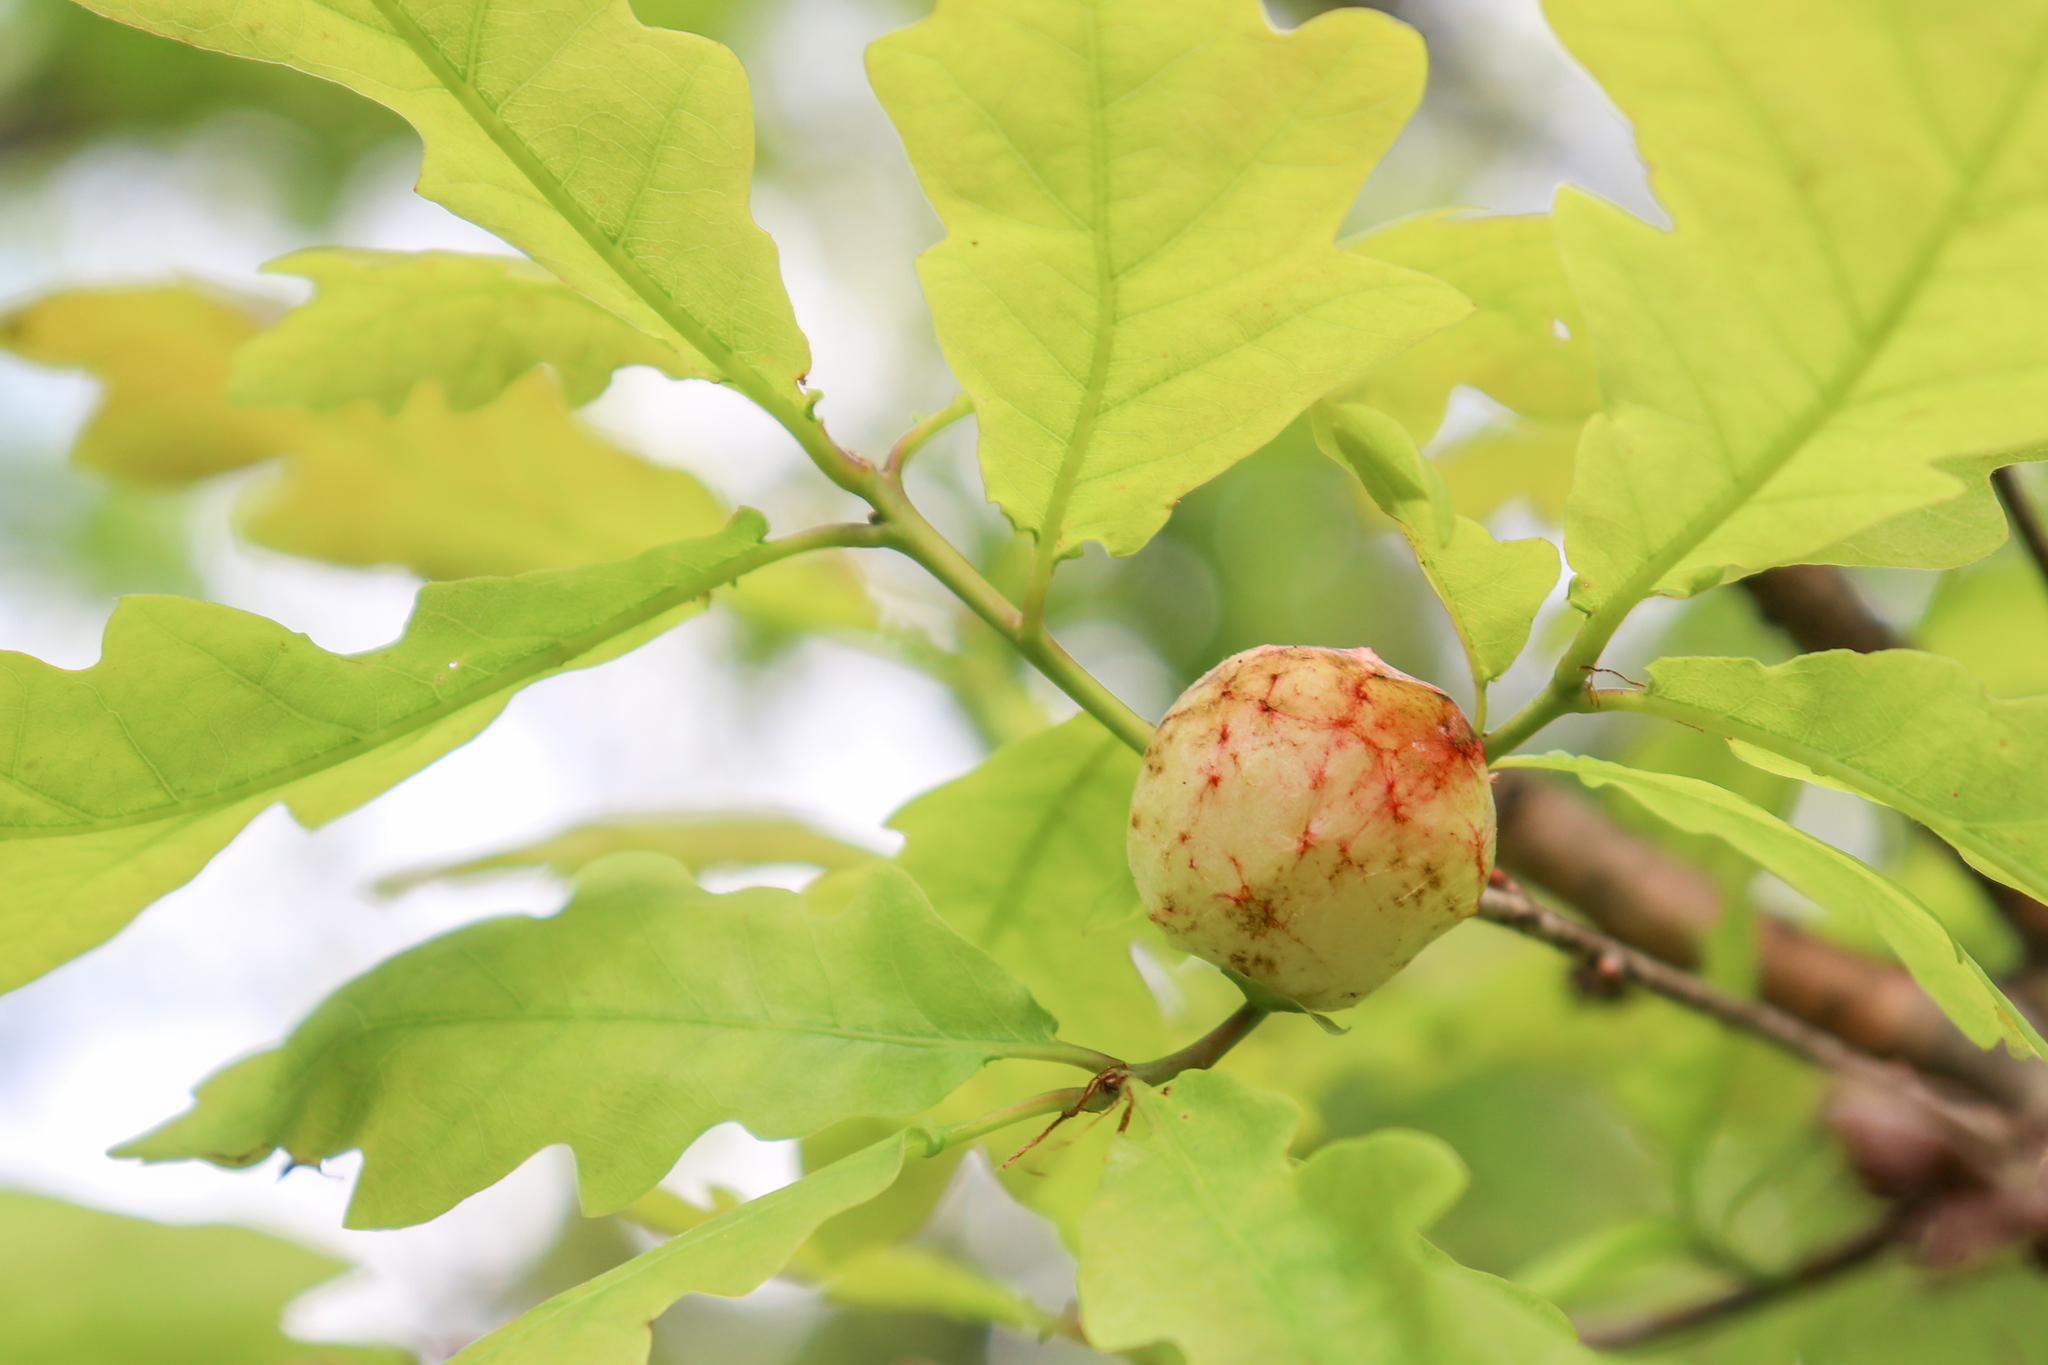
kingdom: Animalia
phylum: Arthropoda
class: Insecta
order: Hymenoptera
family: Cynipidae
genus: Biorhiza
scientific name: Biorhiza pallida
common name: Oak apple
